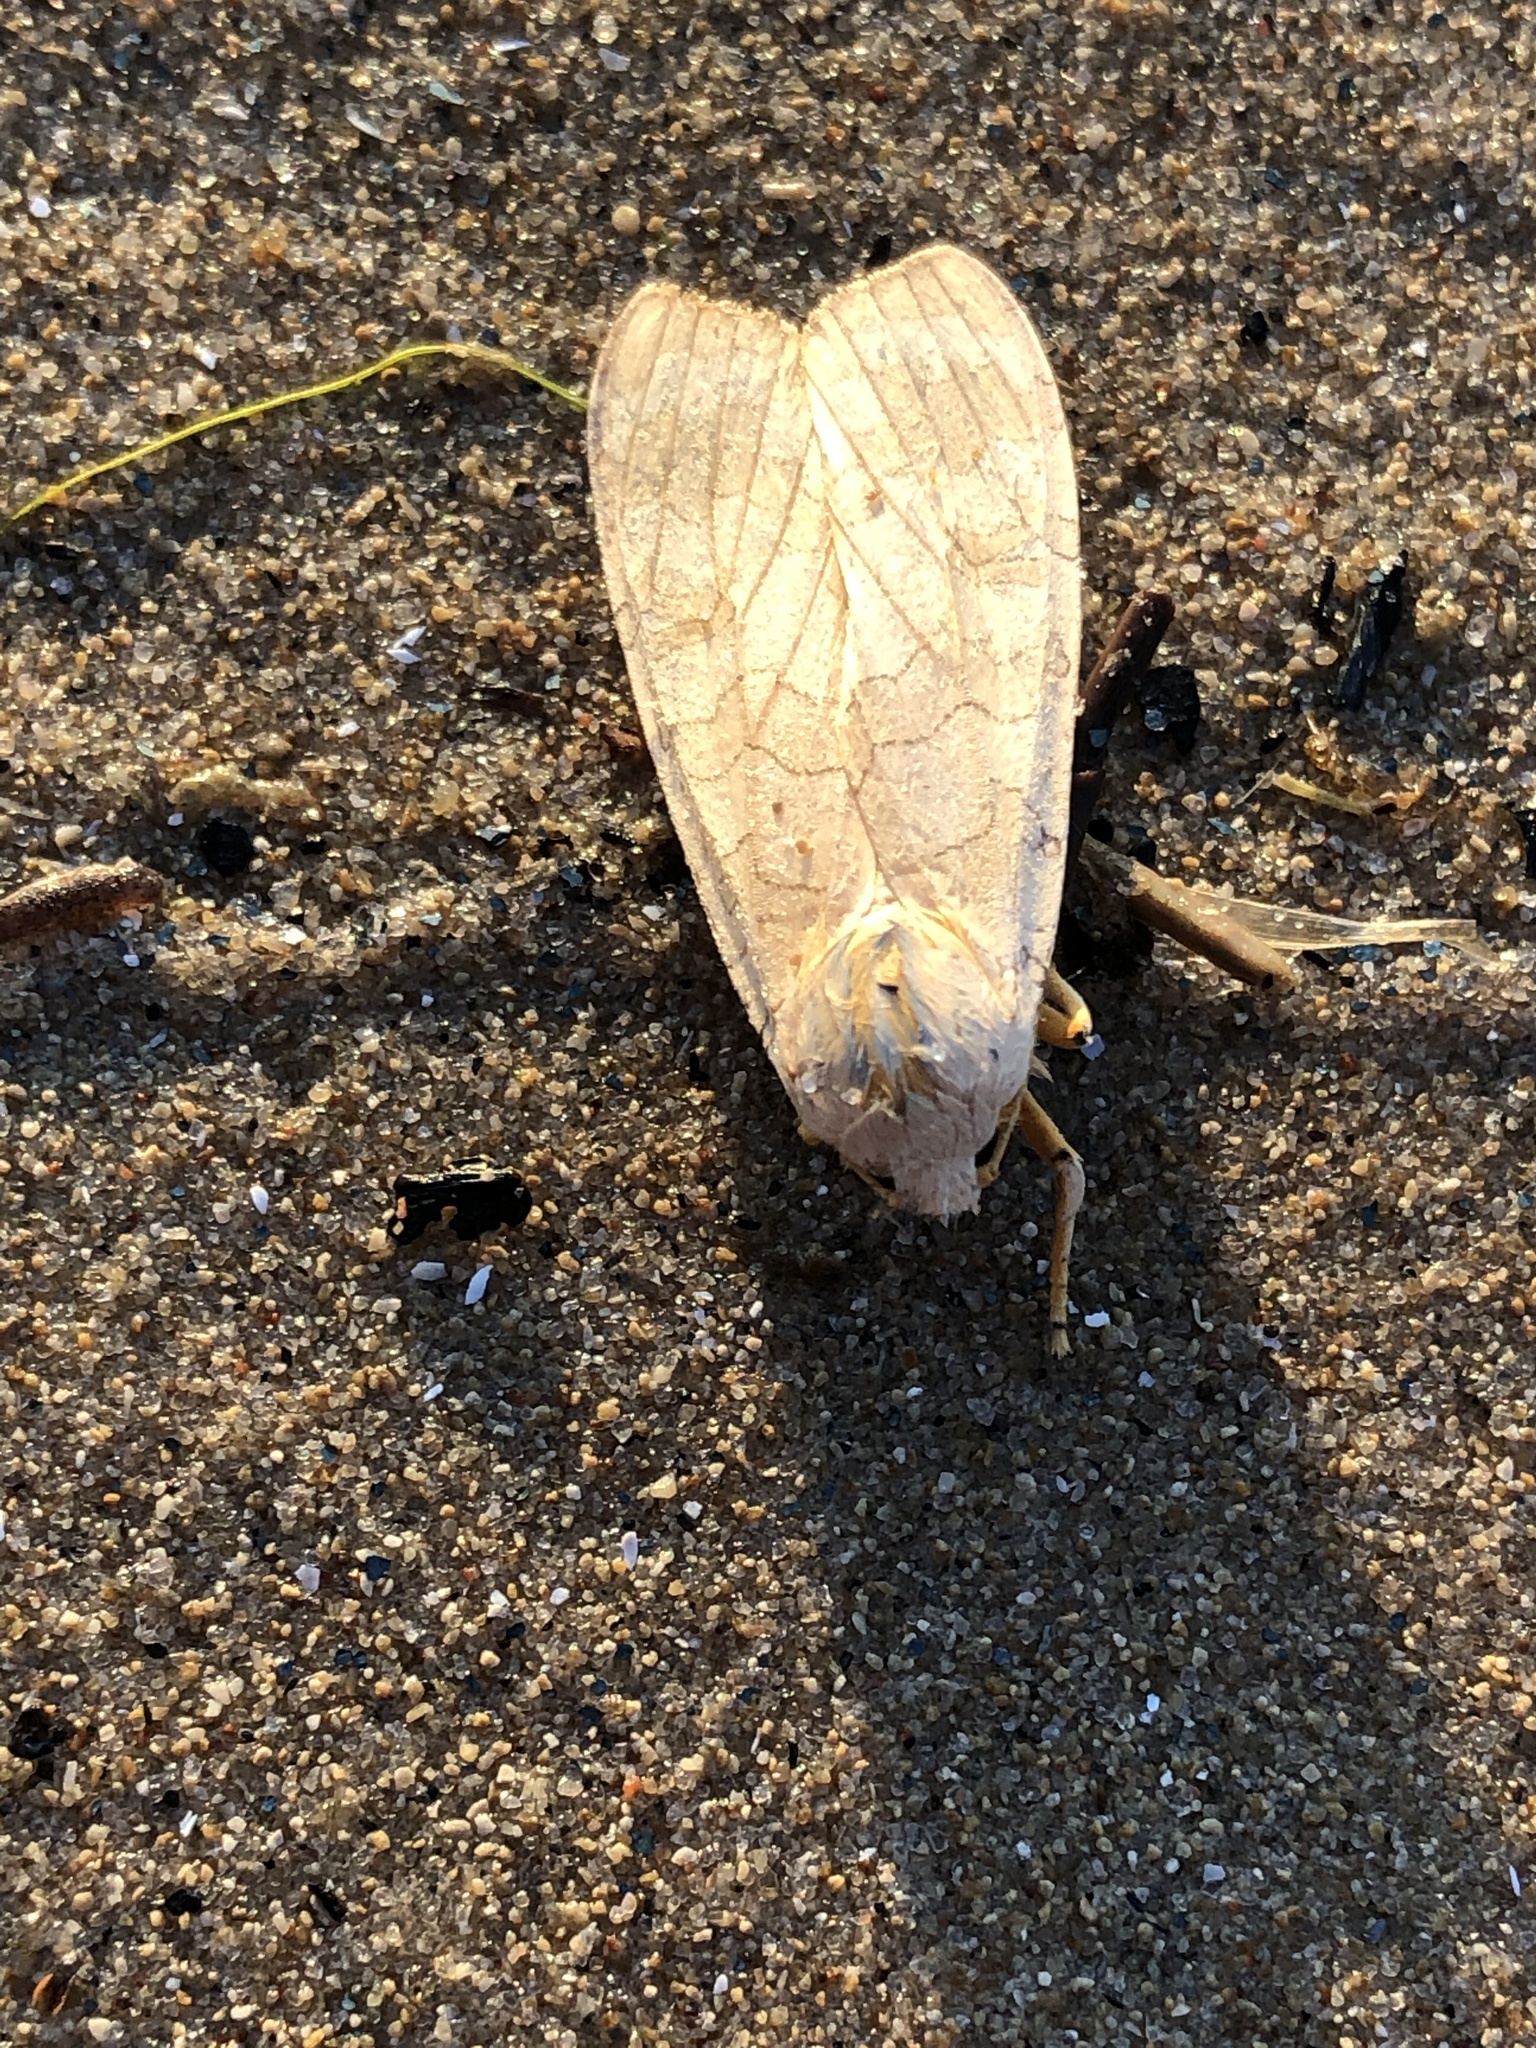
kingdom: Animalia
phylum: Arthropoda
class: Insecta
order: Lepidoptera
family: Erebidae
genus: Halysidota
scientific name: Halysidota tessellaris
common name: Banded tussock moth
